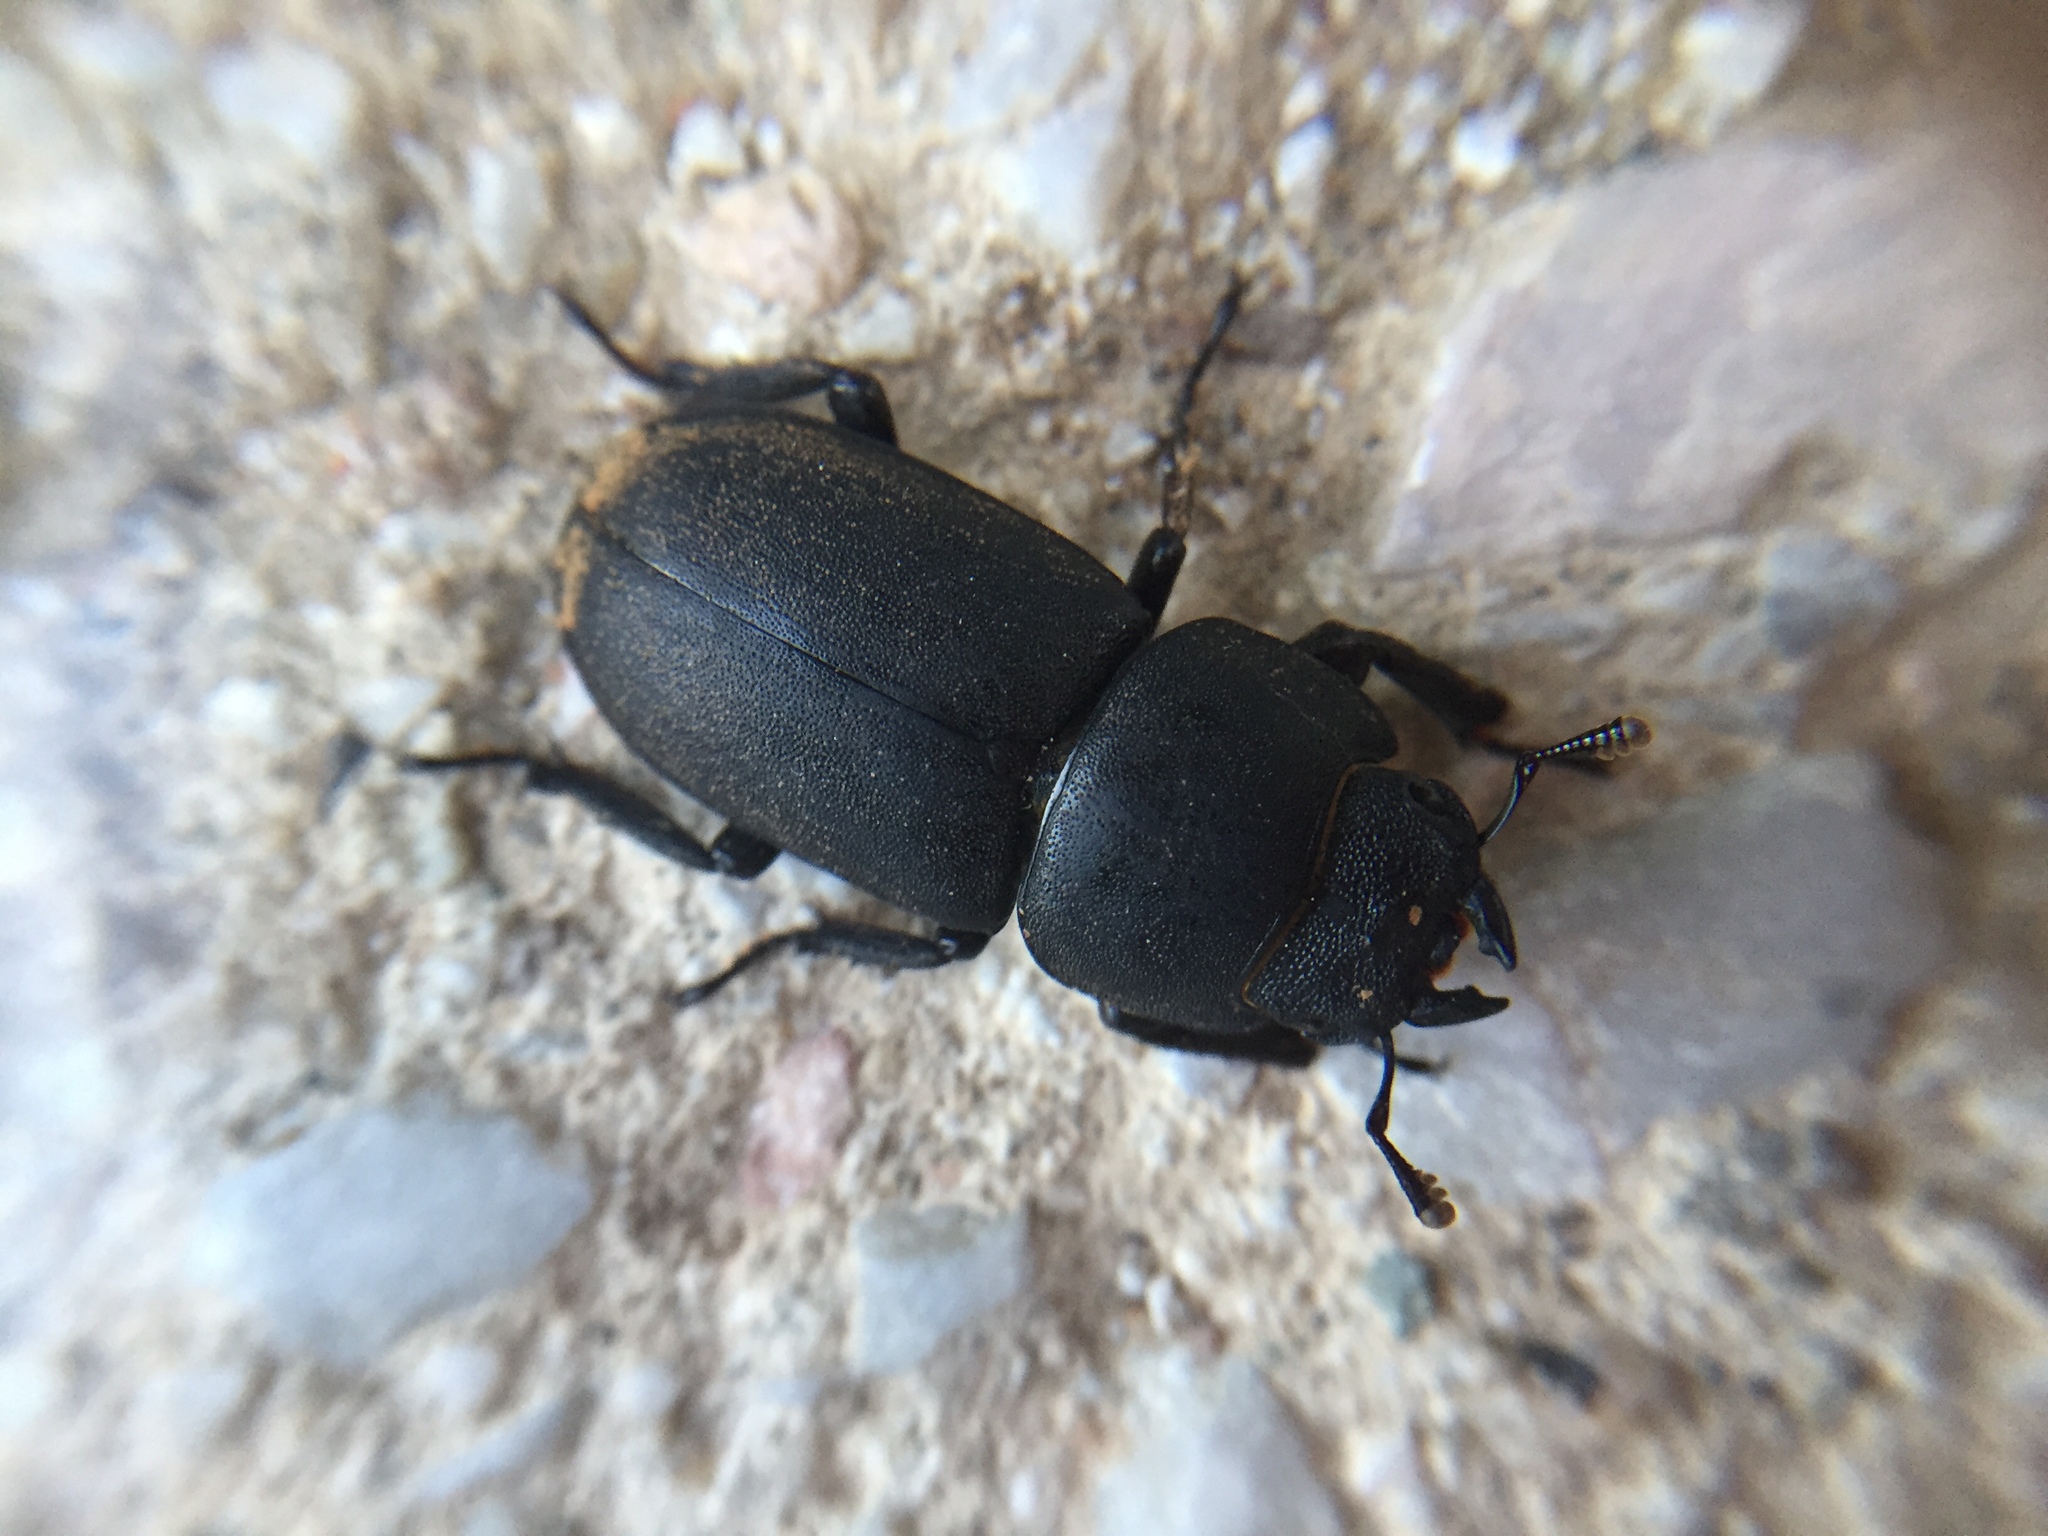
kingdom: Animalia
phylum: Arthropoda
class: Insecta
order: Coleoptera
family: Lucanidae
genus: Dorcus
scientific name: Dorcus parallelipipedus
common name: Lesser stag beetle
